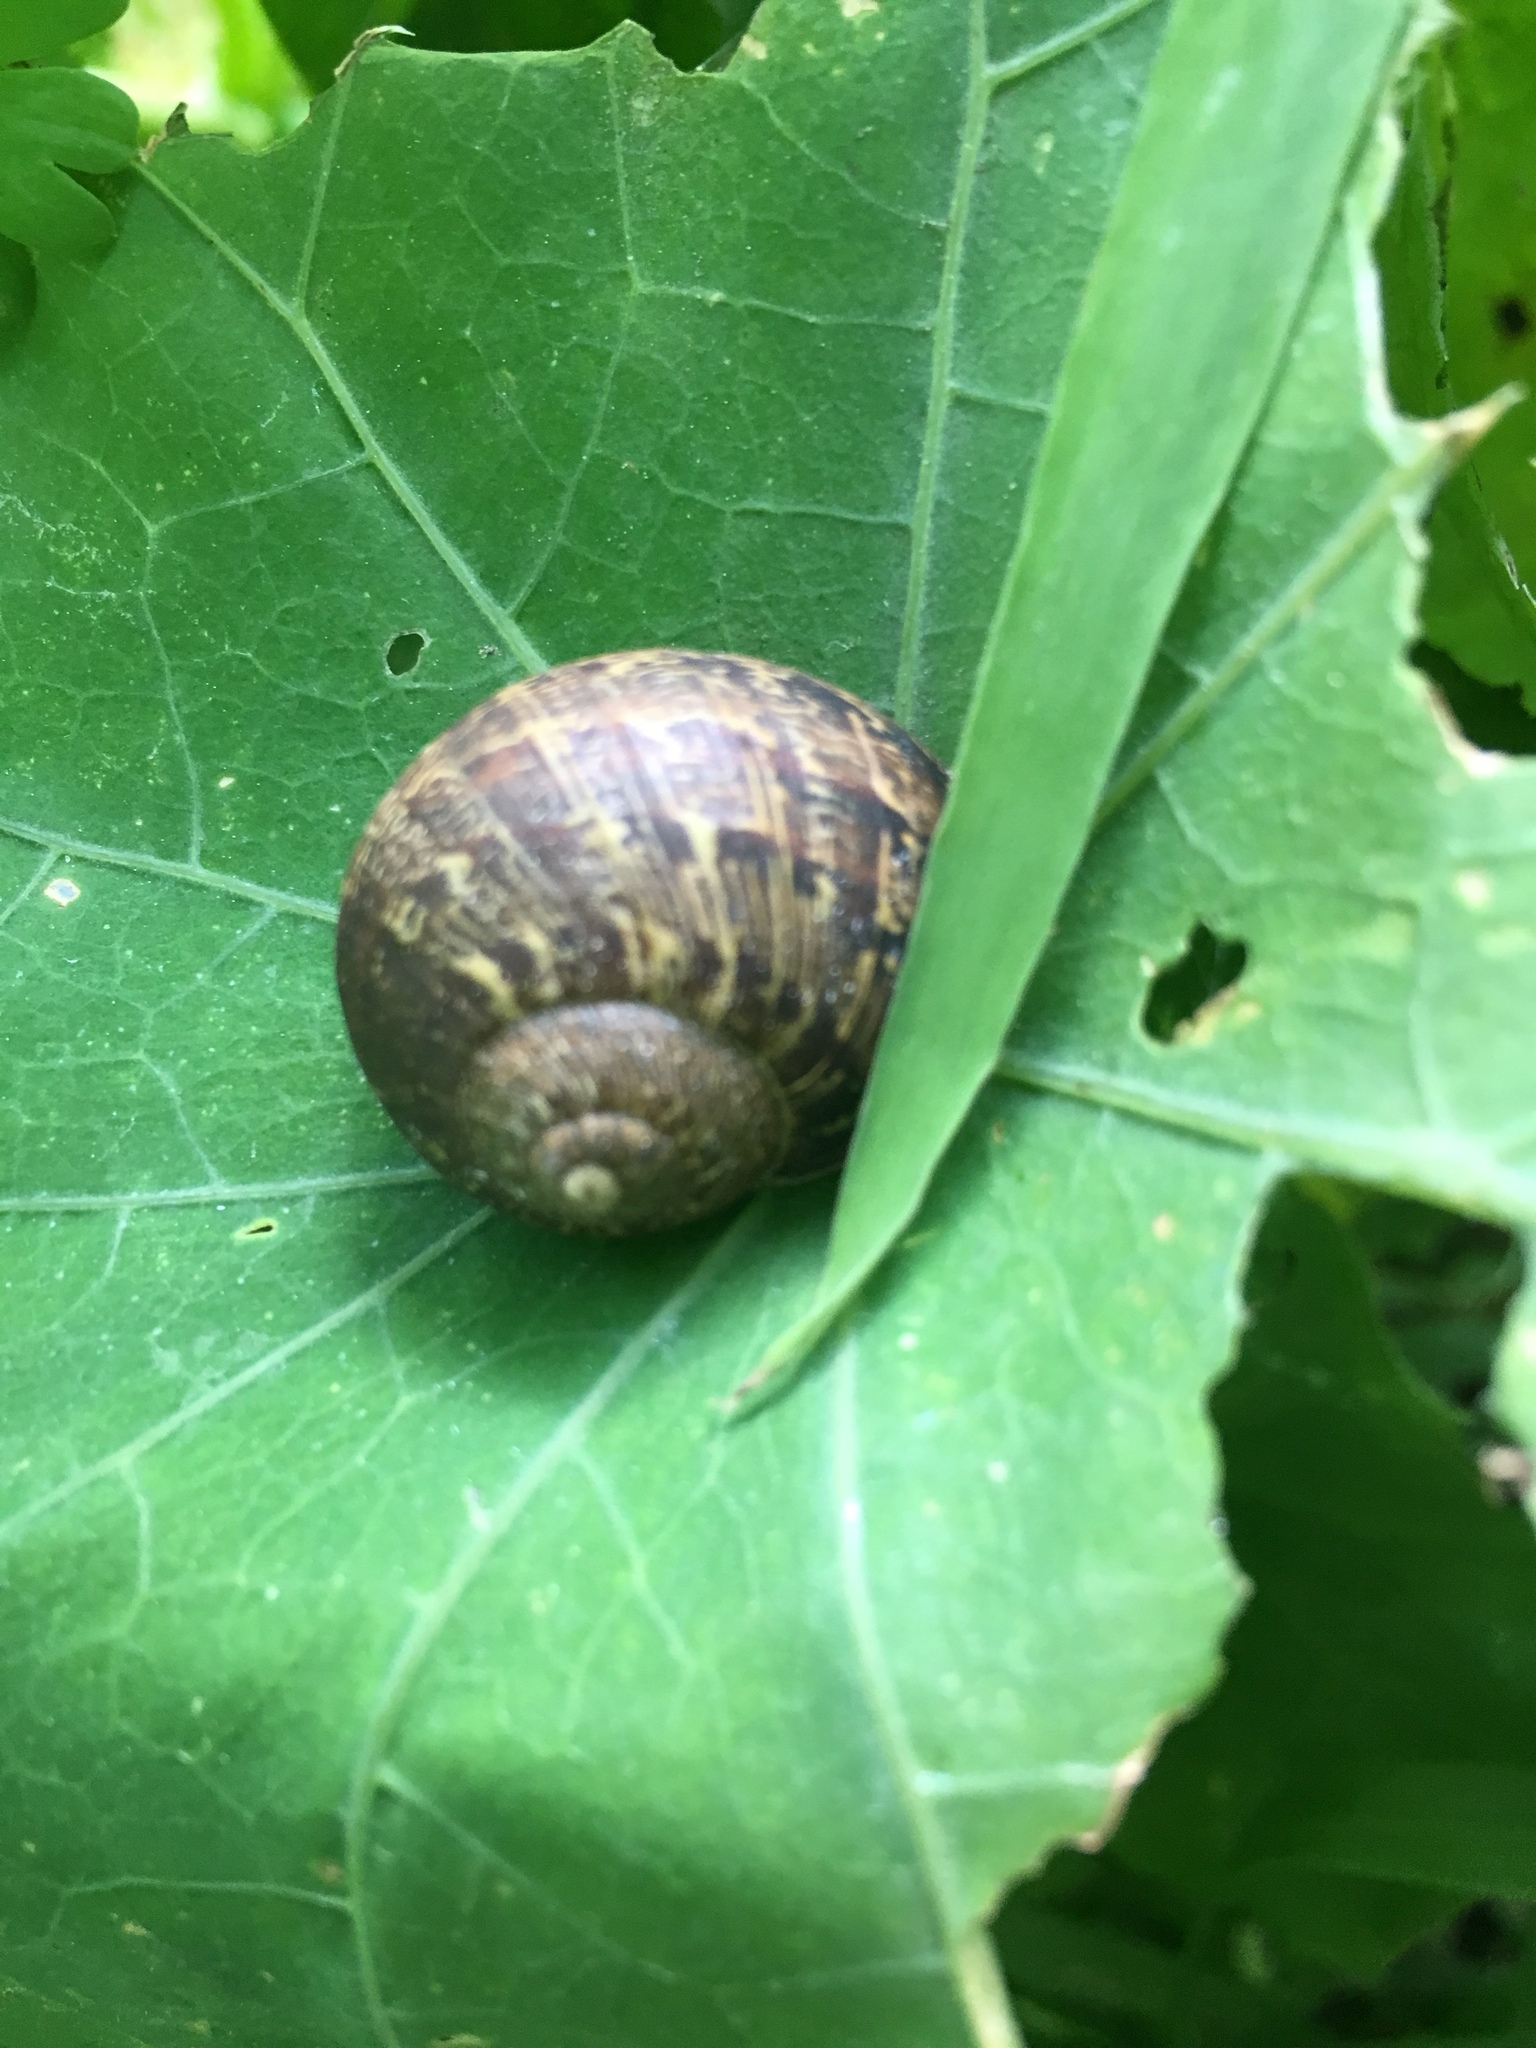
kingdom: Animalia
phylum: Mollusca
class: Gastropoda
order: Stylommatophora
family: Helicidae
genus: Cornu
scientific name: Cornu aspersum
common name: Brown garden snail
